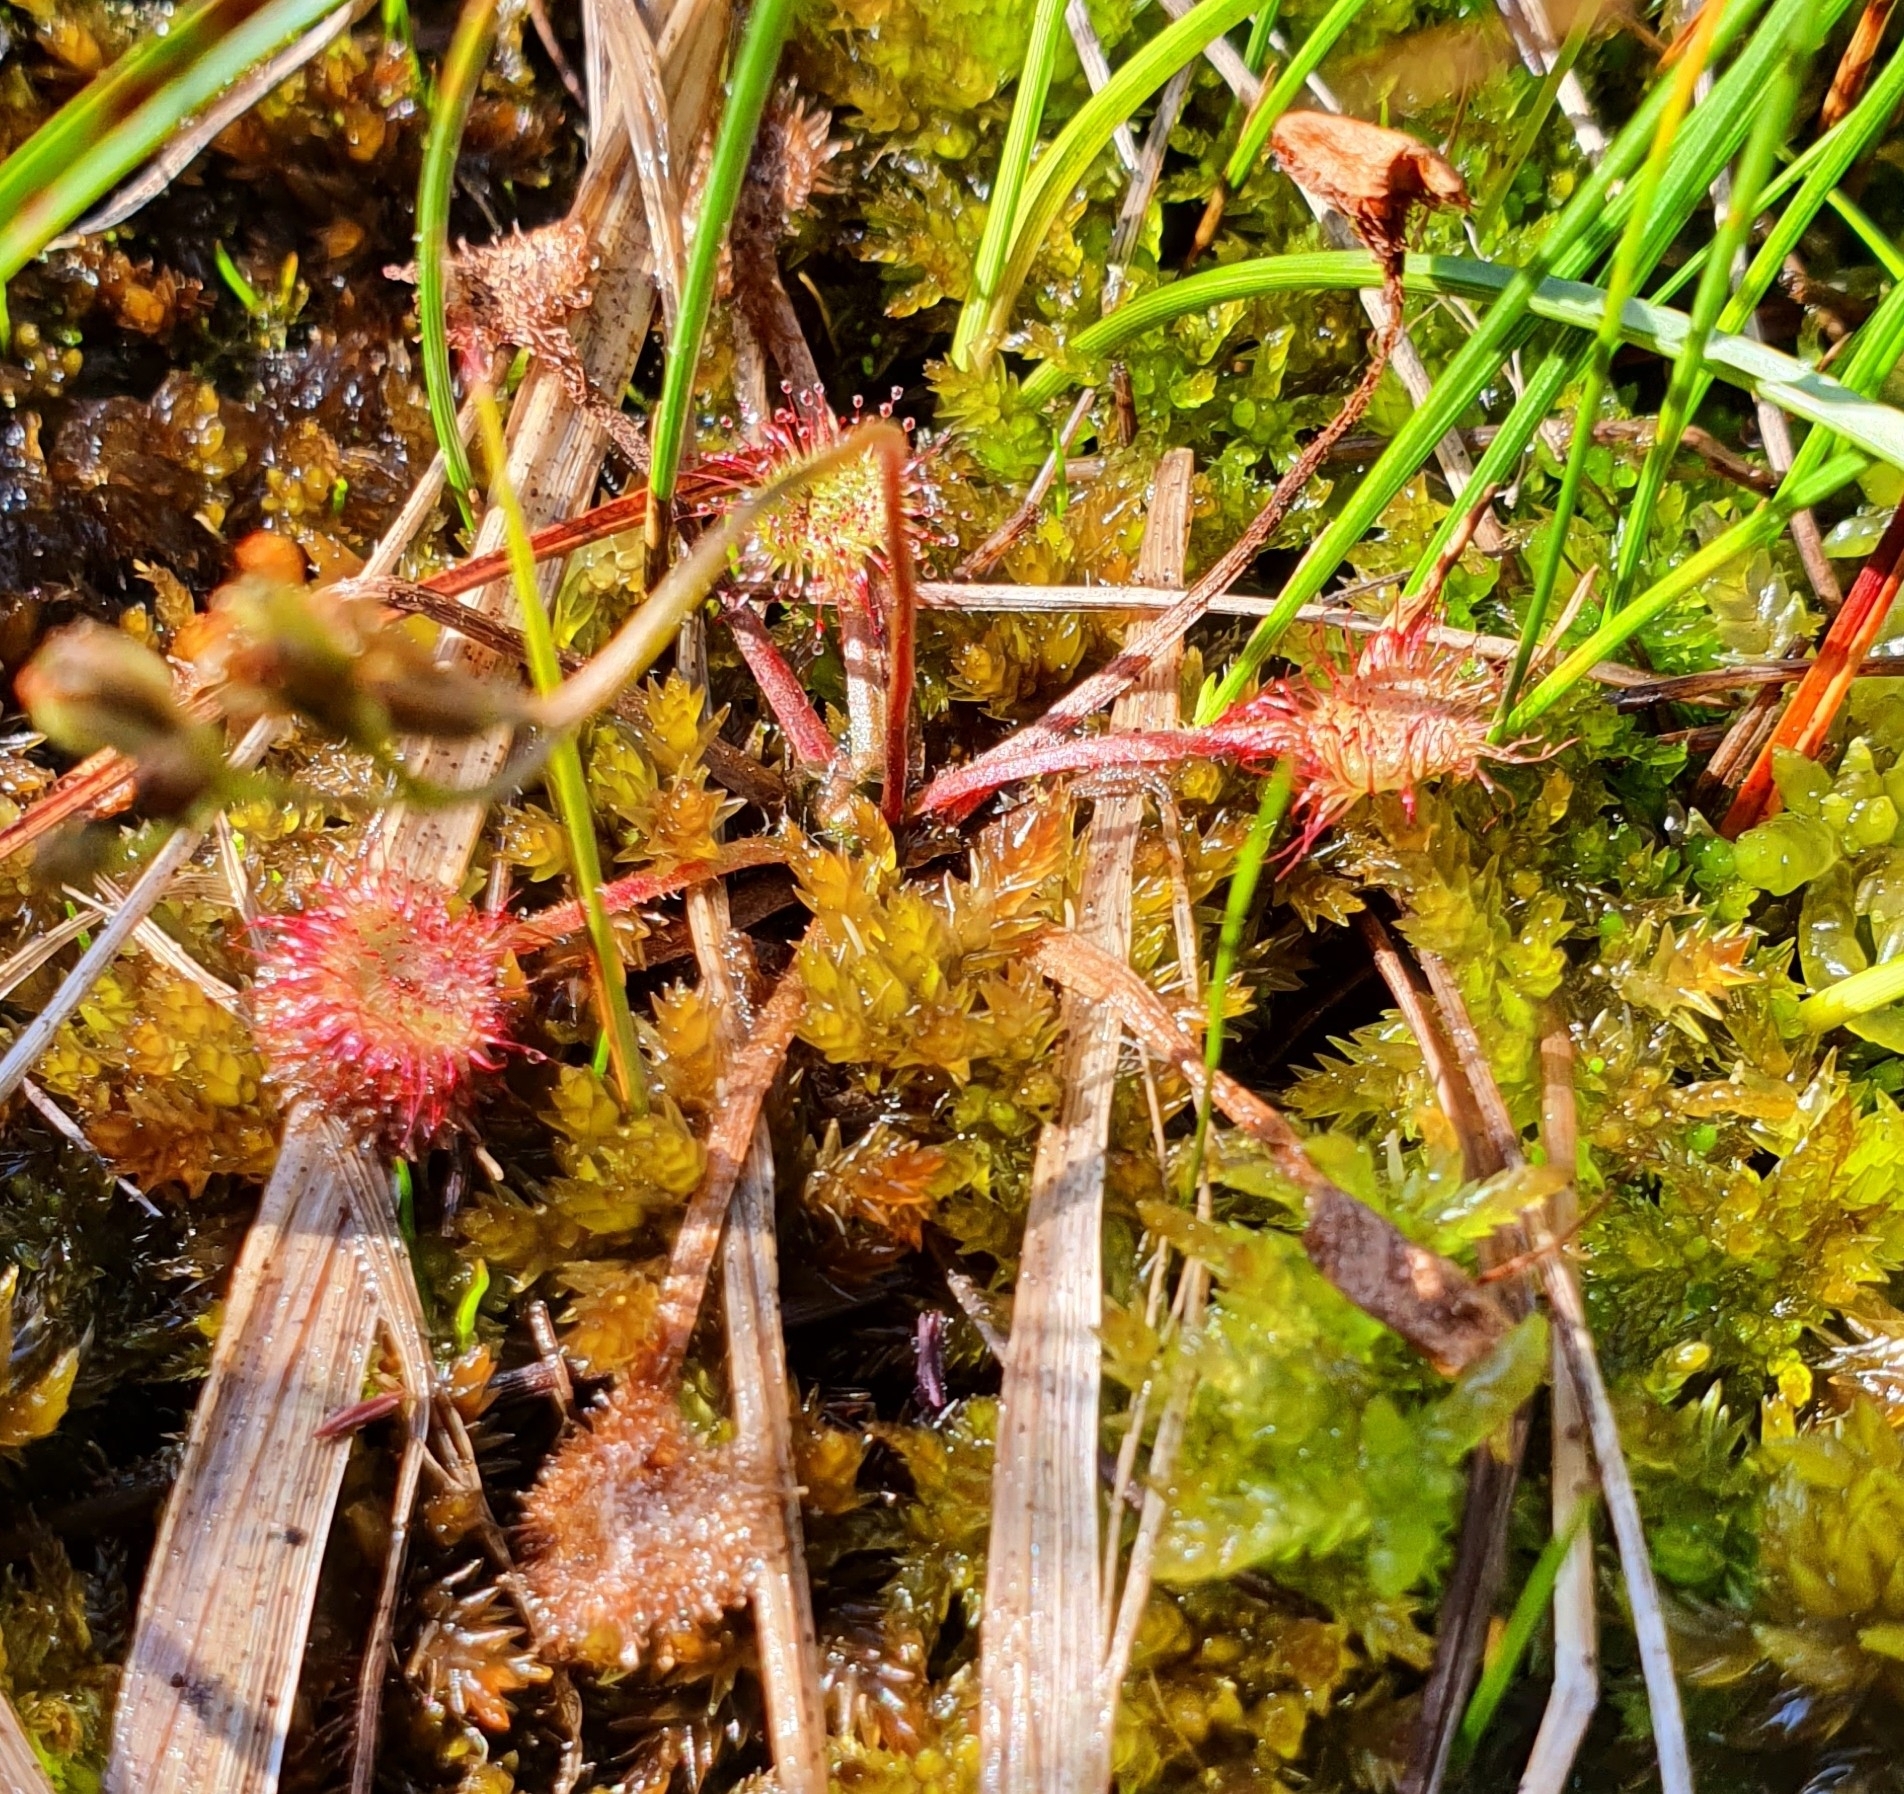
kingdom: Plantae
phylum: Tracheophyta
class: Magnoliopsida
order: Caryophyllales
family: Droseraceae
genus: Drosera
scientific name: Drosera rotundifolia
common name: Round-leaved sundew
